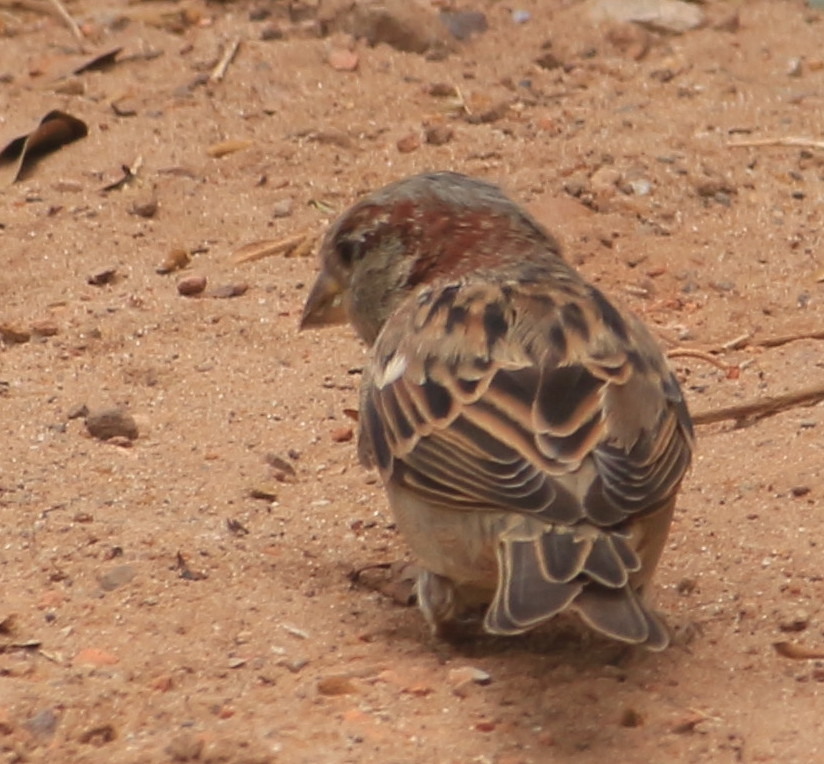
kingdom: Animalia
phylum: Chordata
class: Aves
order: Passeriformes
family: Passeridae
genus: Passer
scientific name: Passer domesticus
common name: House sparrow
